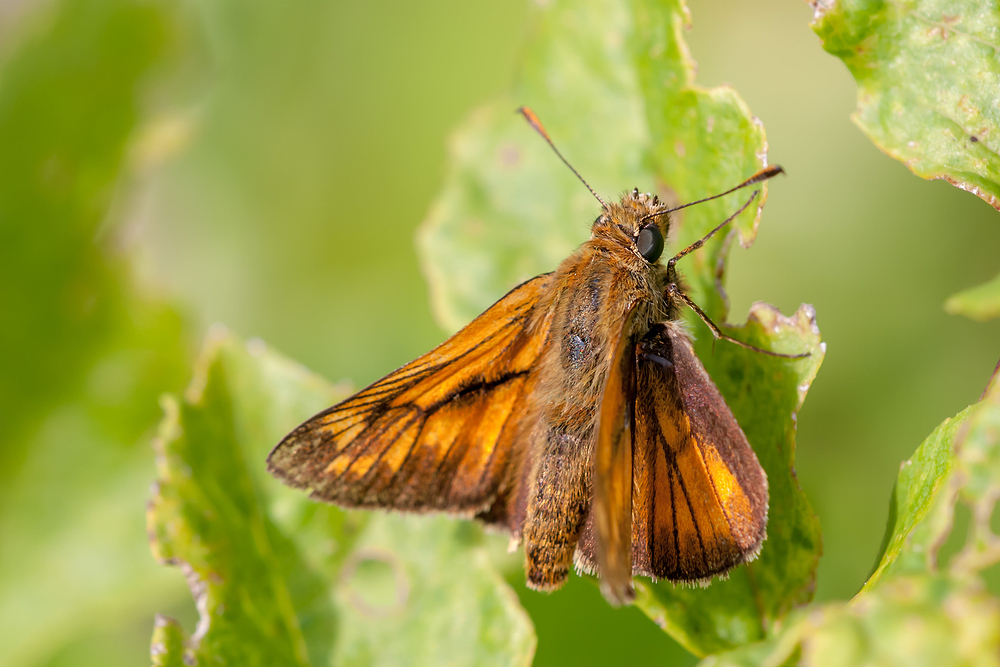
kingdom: Animalia
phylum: Arthropoda
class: Insecta
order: Lepidoptera
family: Hesperiidae
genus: Ochlodes
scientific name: Ochlodes venata
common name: Large skipper
